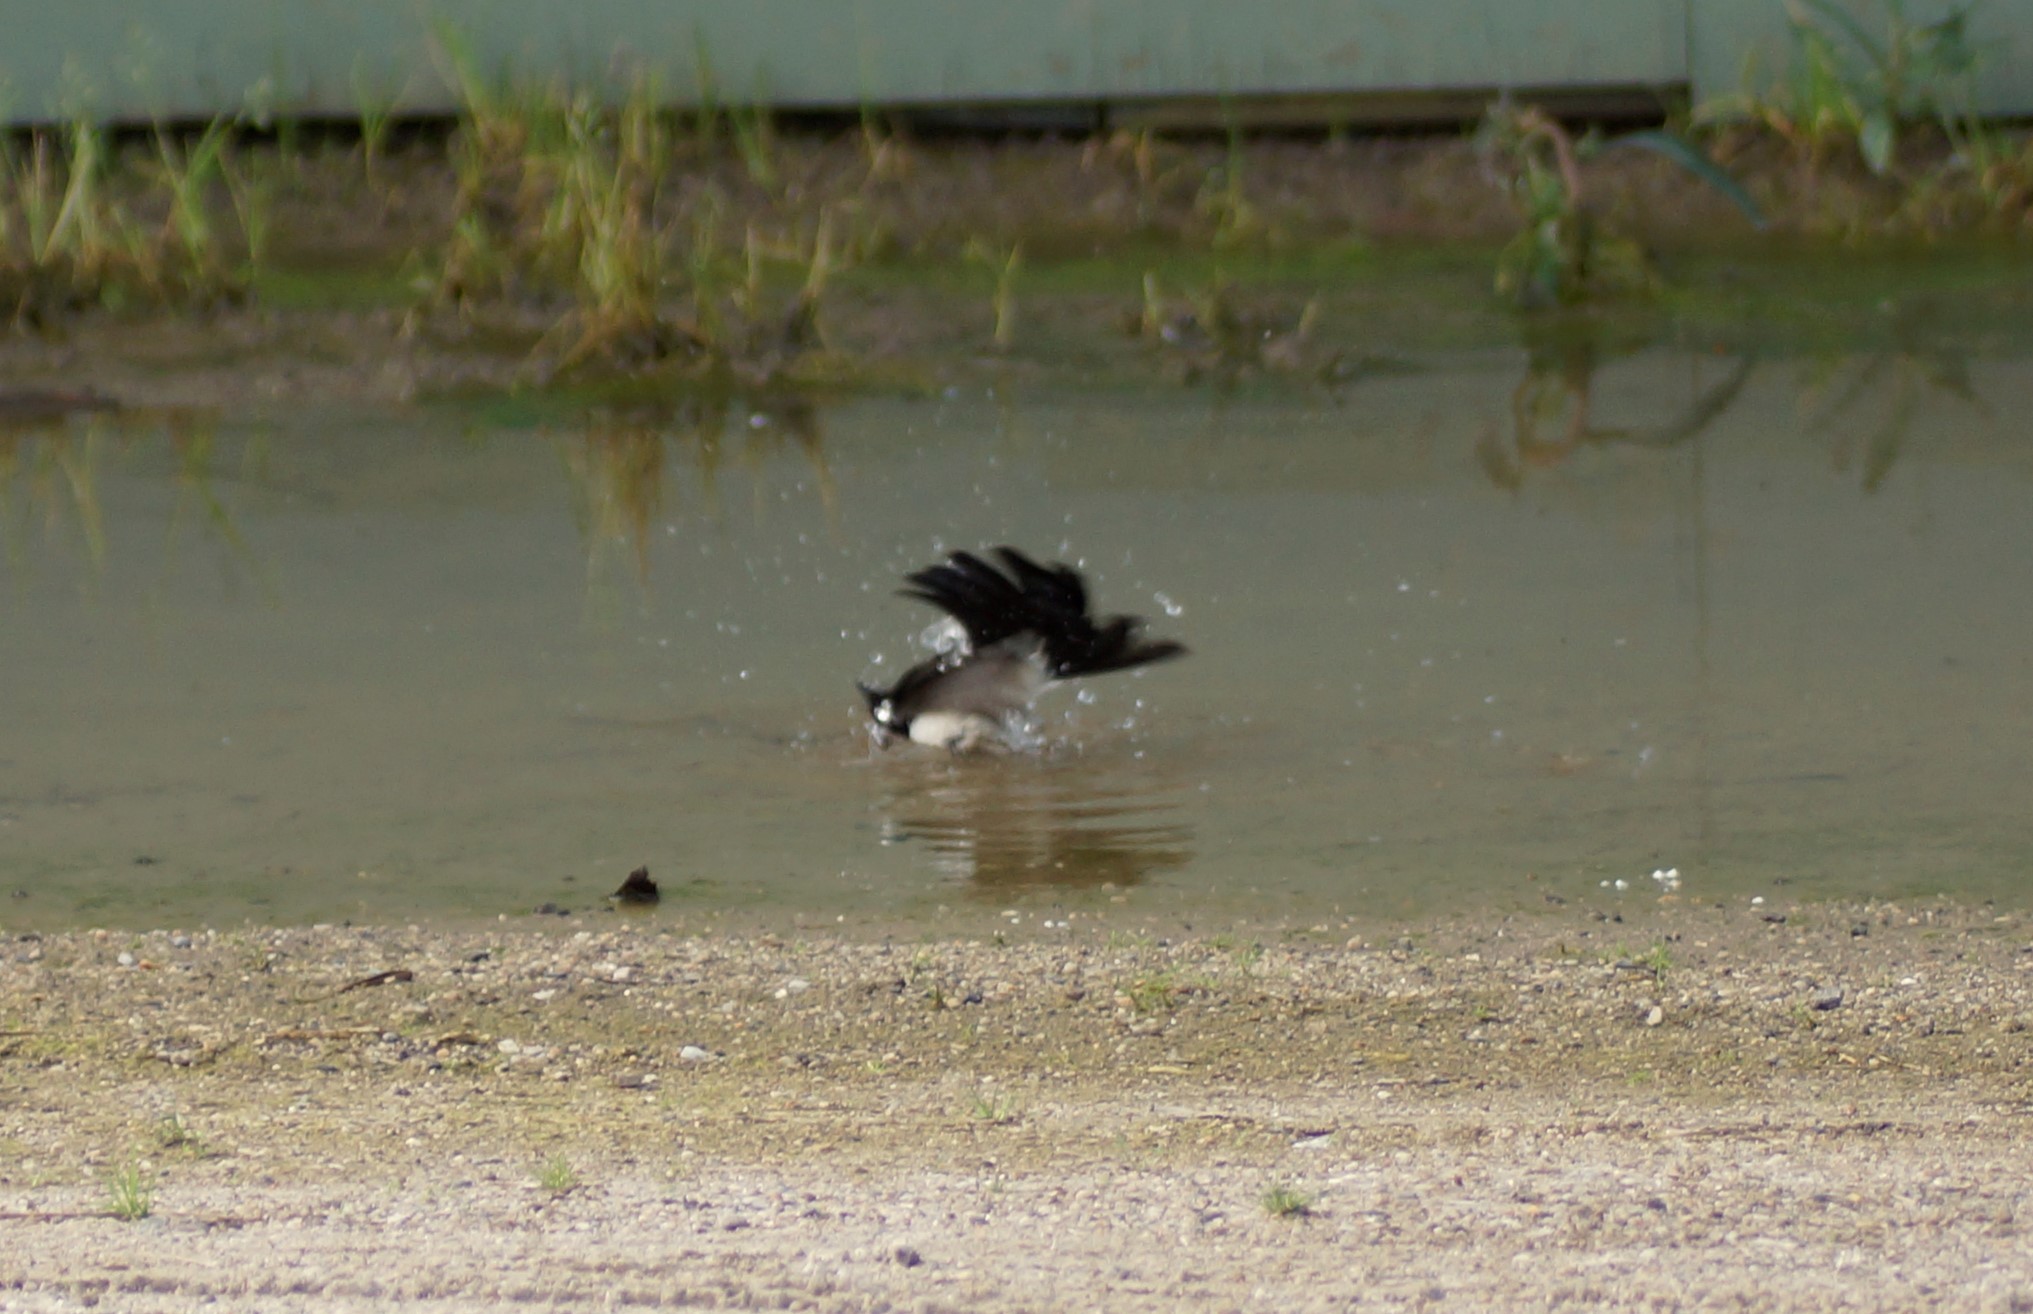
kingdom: Animalia
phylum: Chordata
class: Aves
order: Passeriformes
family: Rhipiduridae
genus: Rhipidura
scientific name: Rhipidura leucophrys
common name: Willie wagtail
